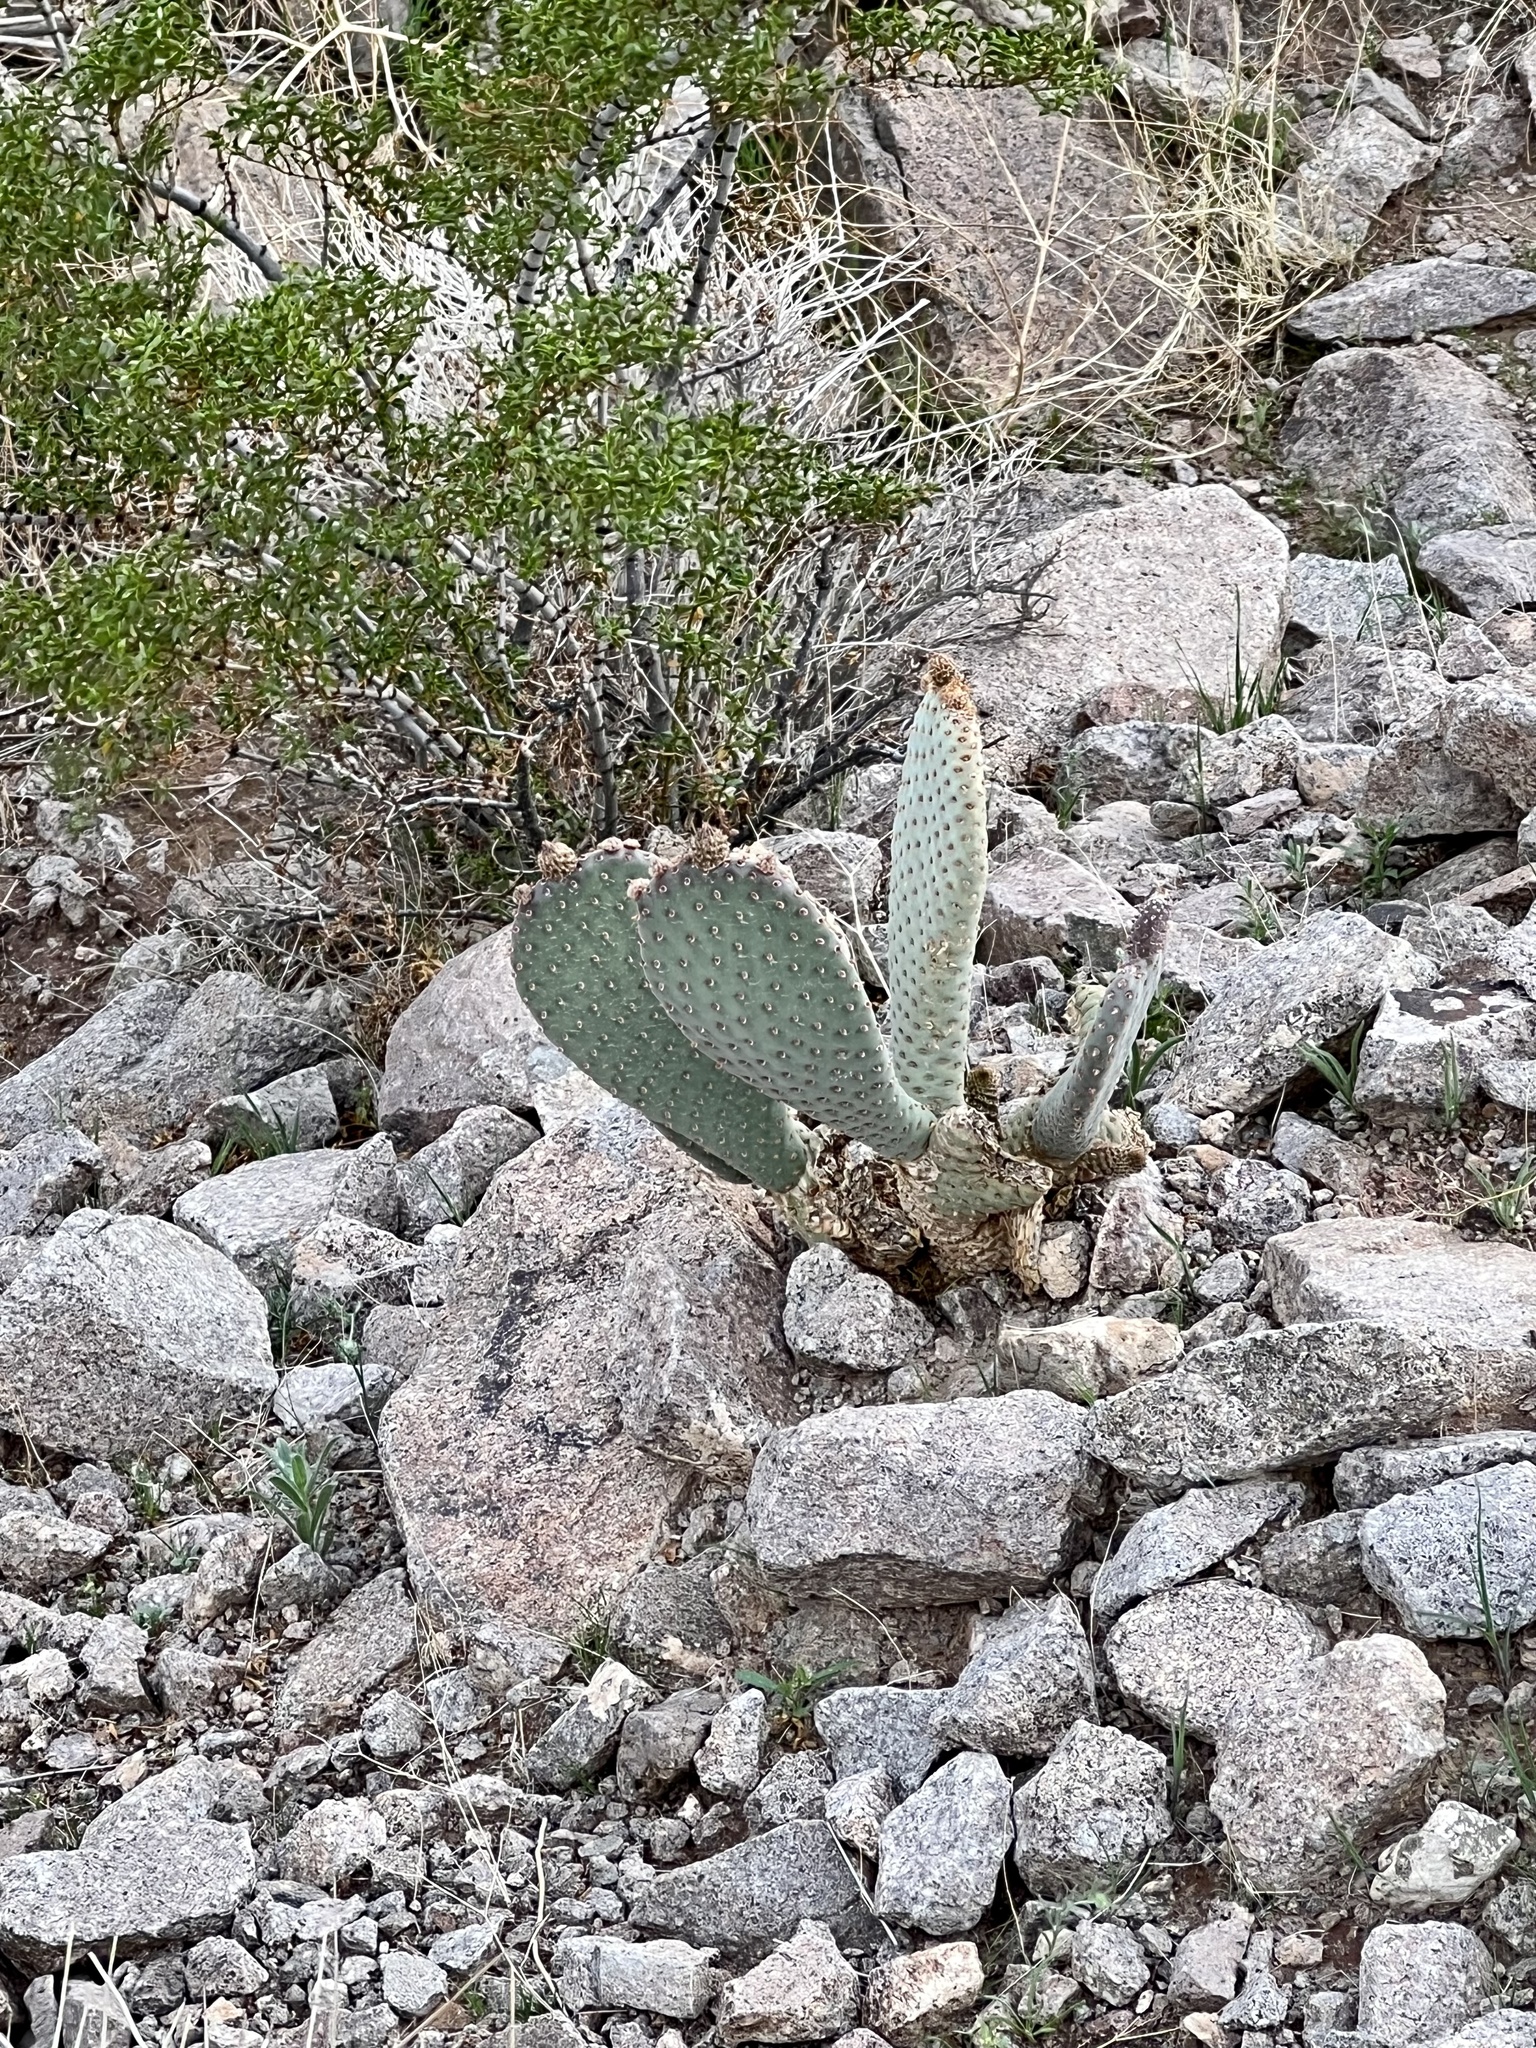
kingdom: Plantae
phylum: Tracheophyta
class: Magnoliopsida
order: Caryophyllales
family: Cactaceae
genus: Opuntia
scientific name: Opuntia basilaris
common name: Beavertail prickly-pear
